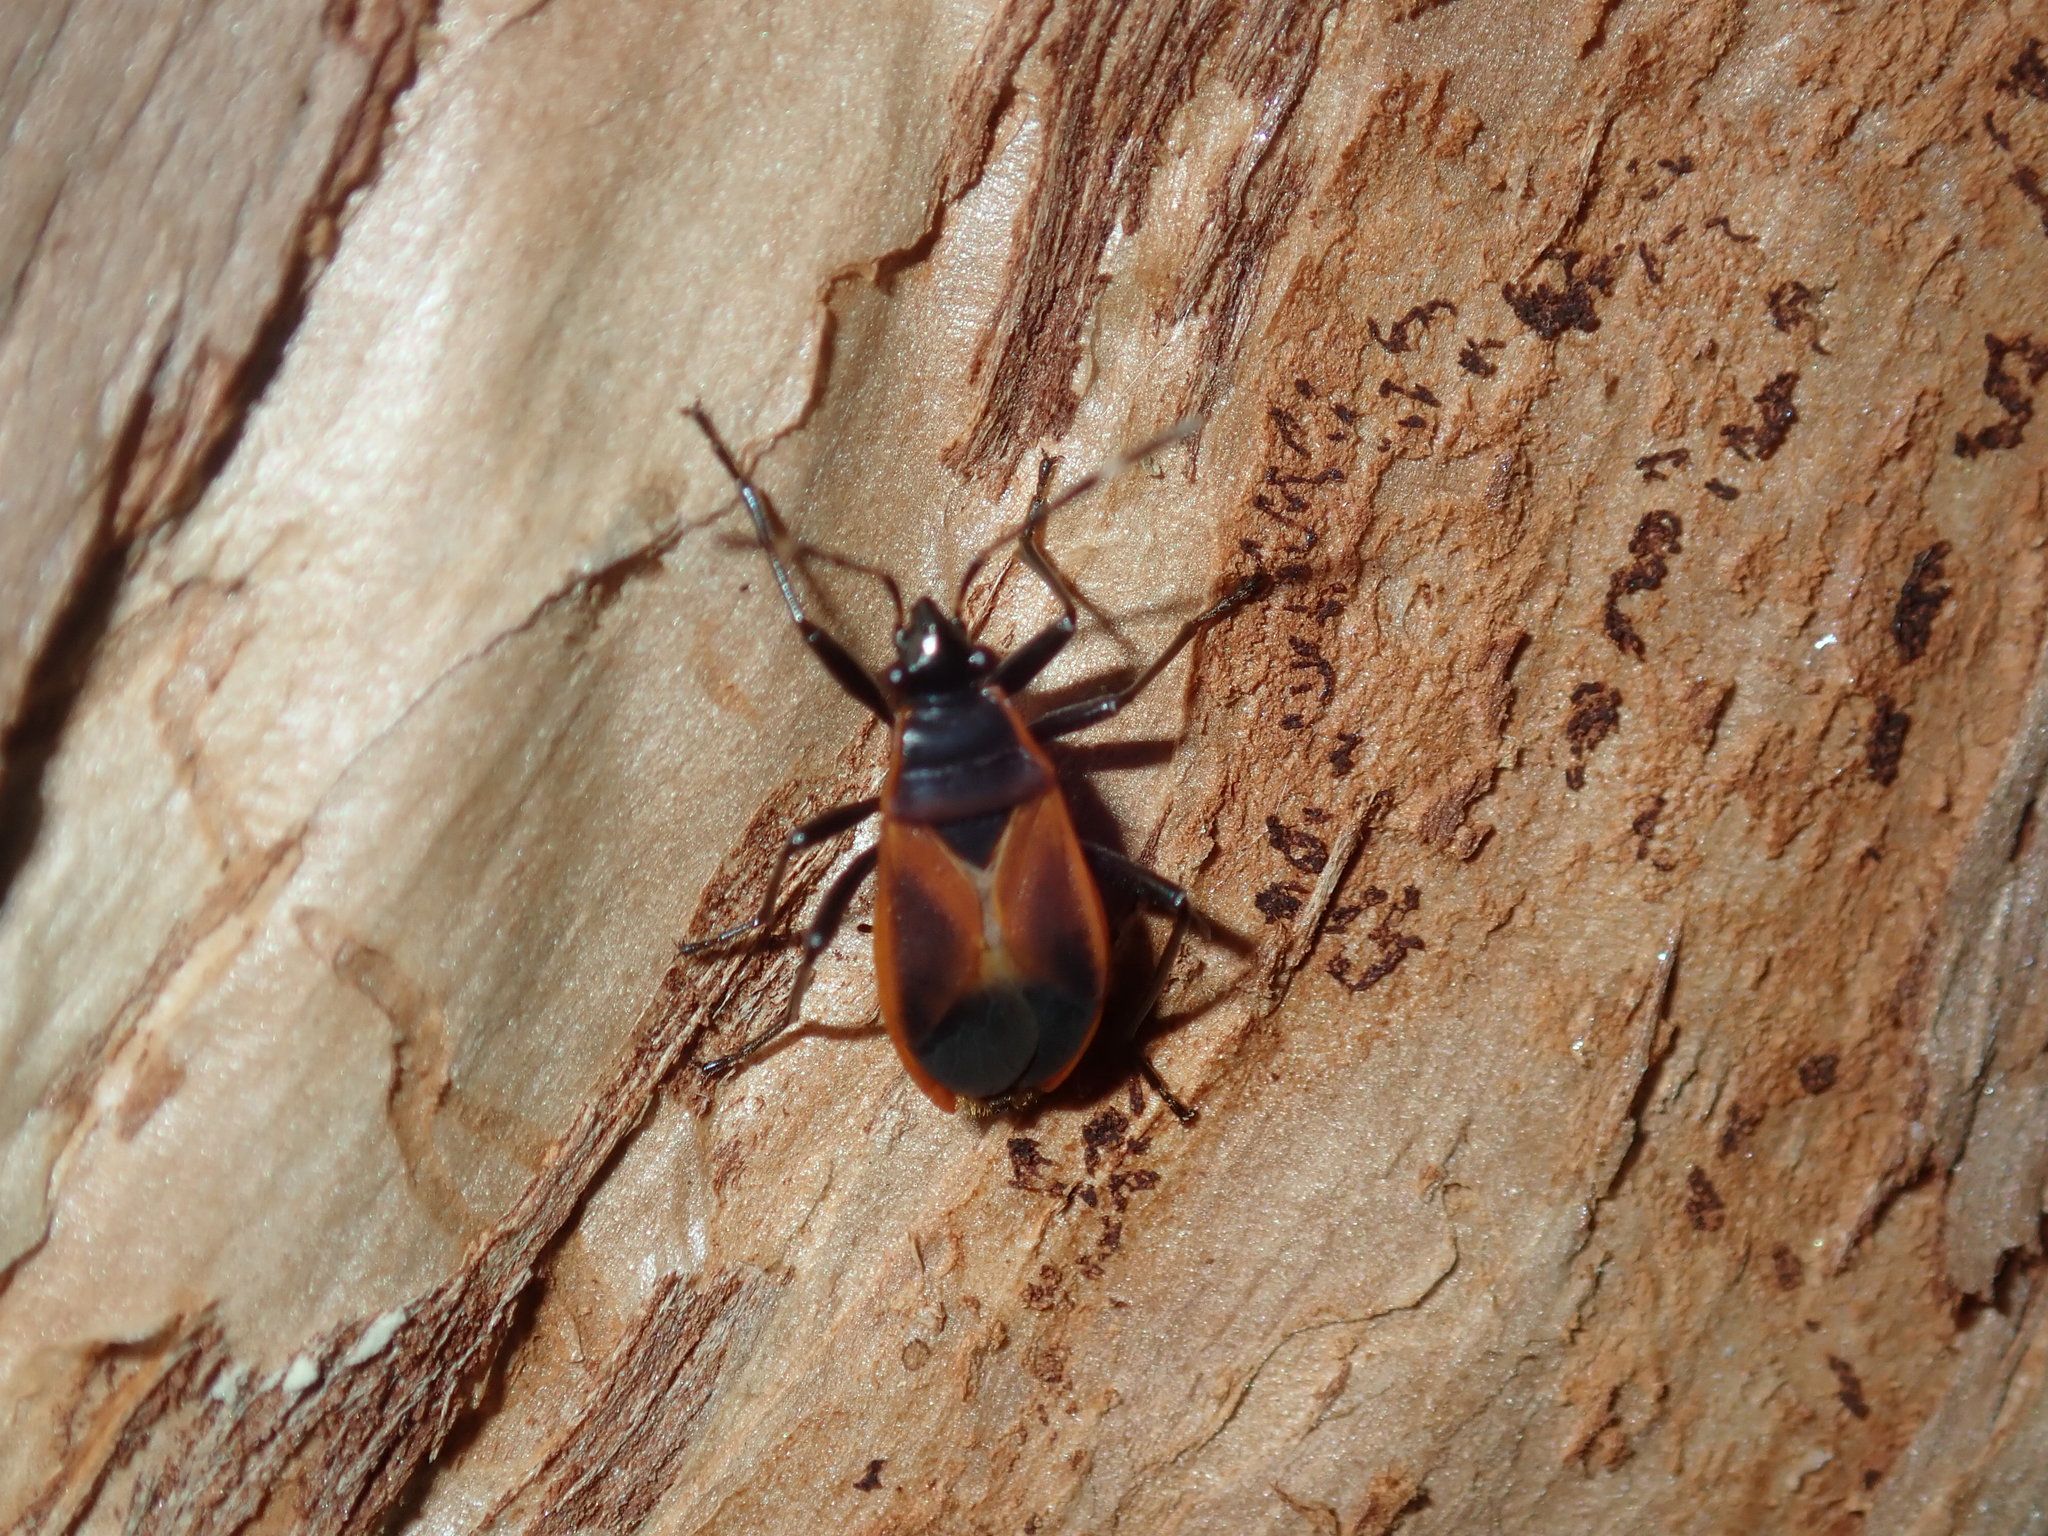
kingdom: Animalia
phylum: Arthropoda
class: Insecta
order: Hemiptera
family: Pyrrhocoridae
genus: Dindymus
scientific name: Dindymus
